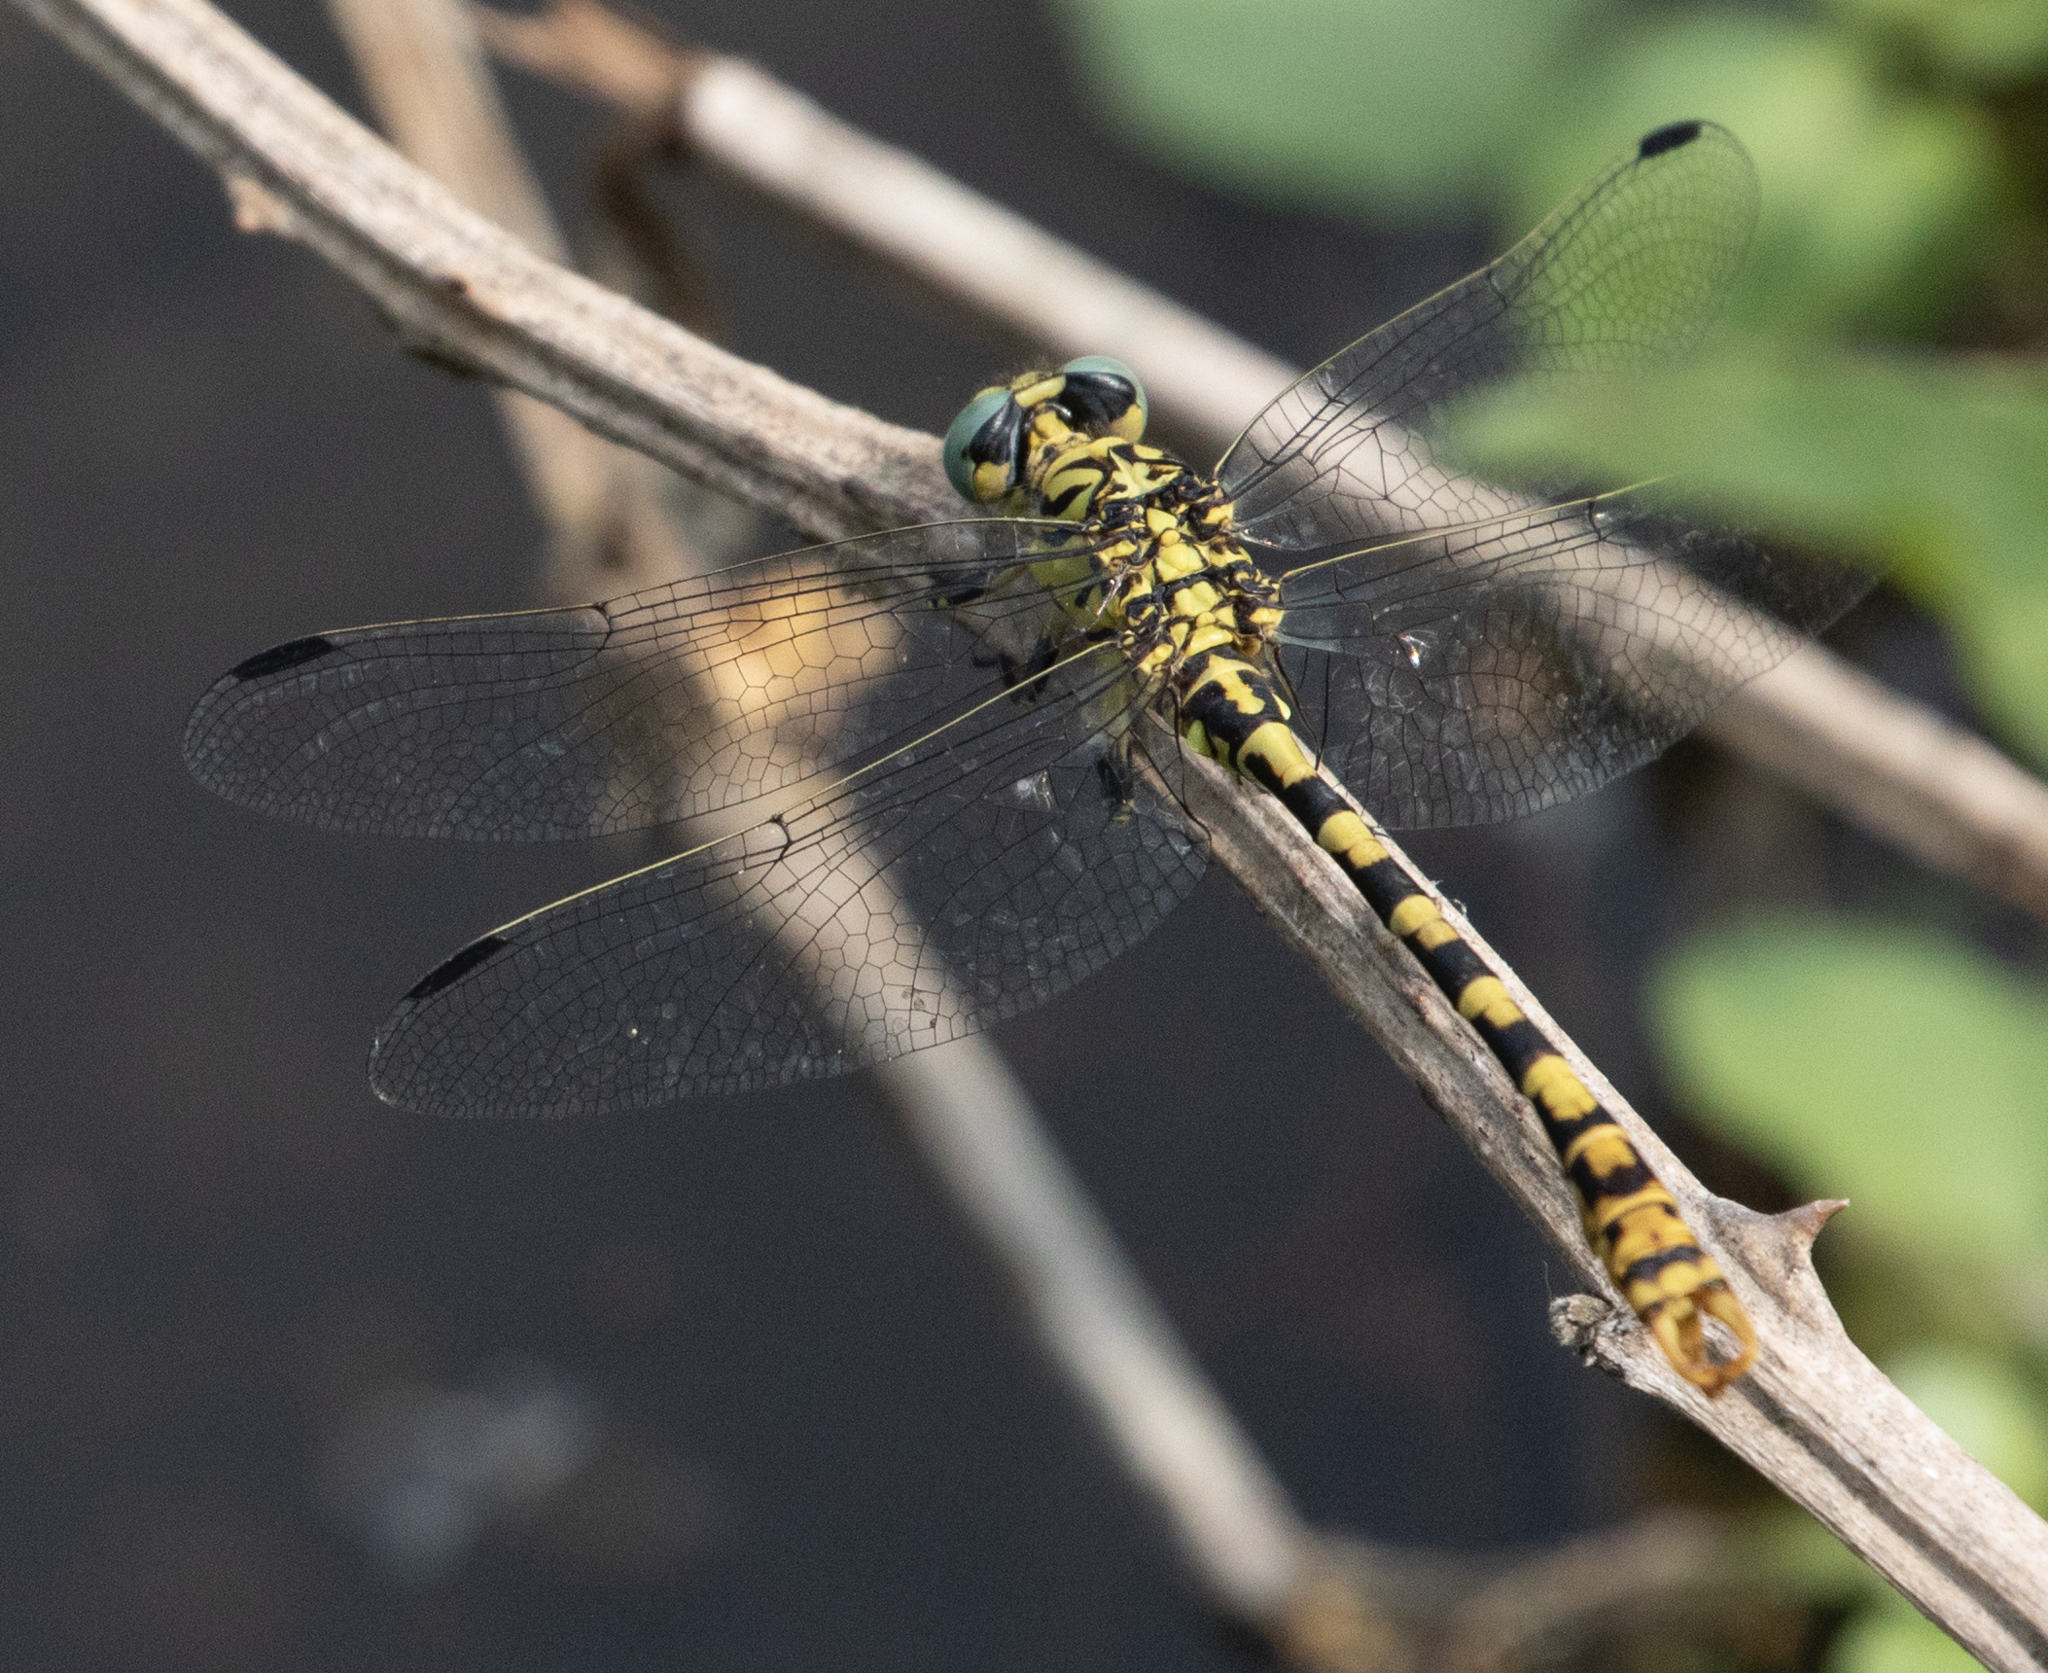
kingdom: Animalia
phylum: Arthropoda
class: Insecta
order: Odonata
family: Gomphidae
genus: Onychogomphus
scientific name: Onychogomphus forcipatus
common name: Small pincertail
